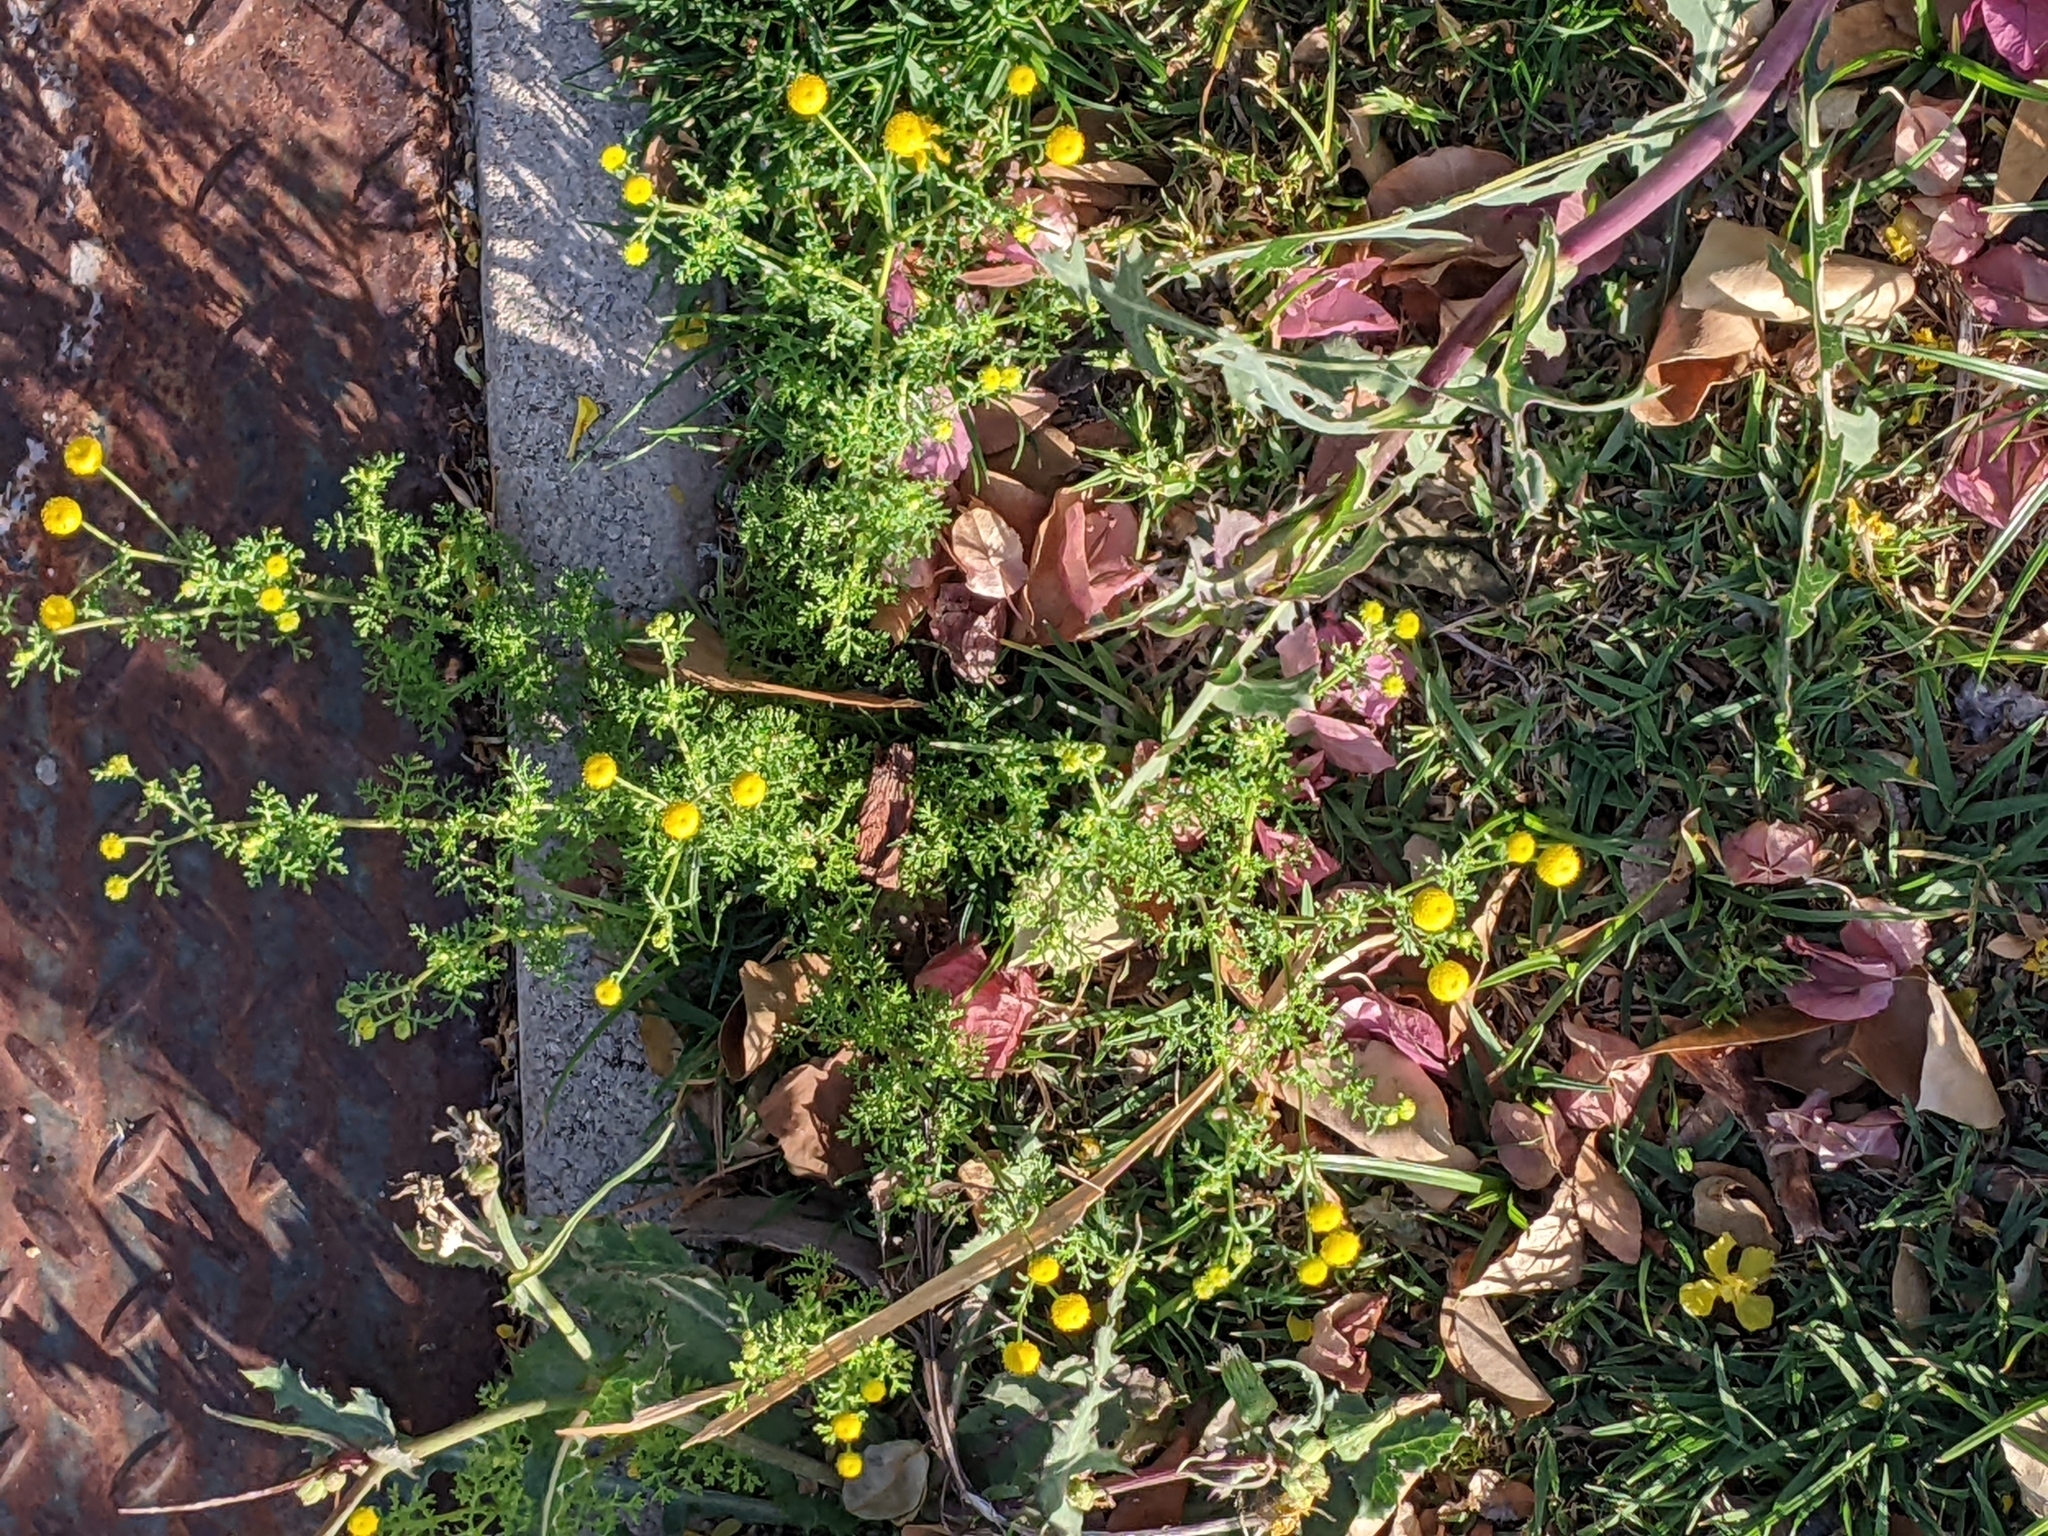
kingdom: Plantae
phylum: Tracheophyta
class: Magnoliopsida
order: Asterales
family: Asteraceae
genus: Oncosiphon
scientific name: Oncosiphon pilulifer
